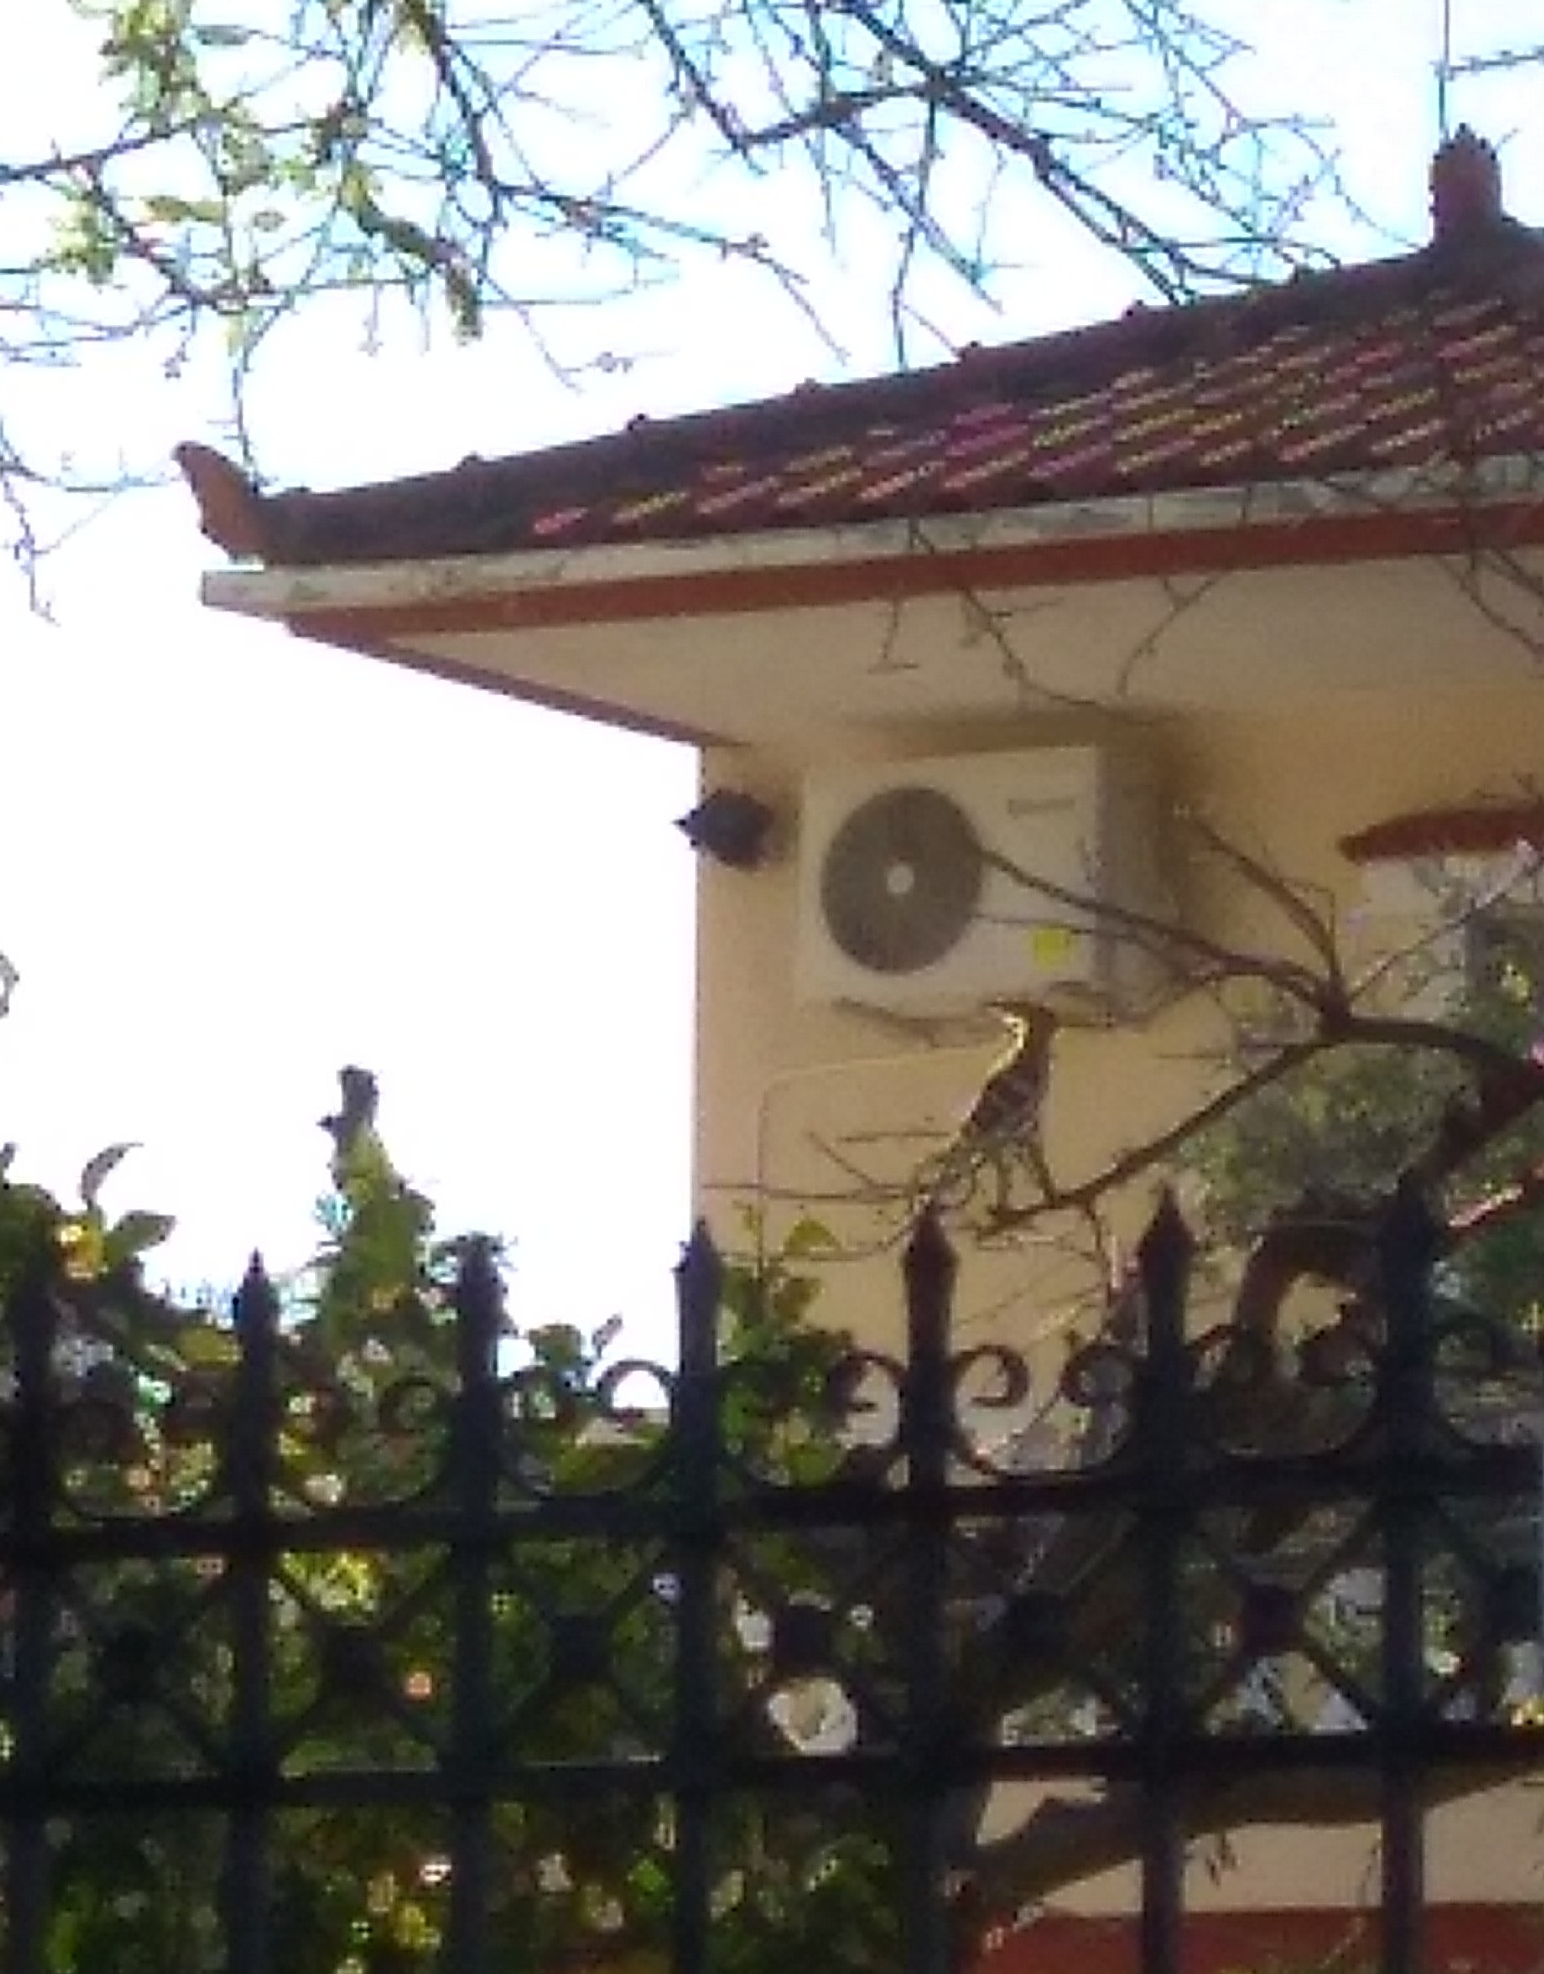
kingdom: Animalia
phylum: Chordata
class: Aves
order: Bucerotiformes
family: Upupidae
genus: Upupa
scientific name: Upupa epops
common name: Eurasian hoopoe
